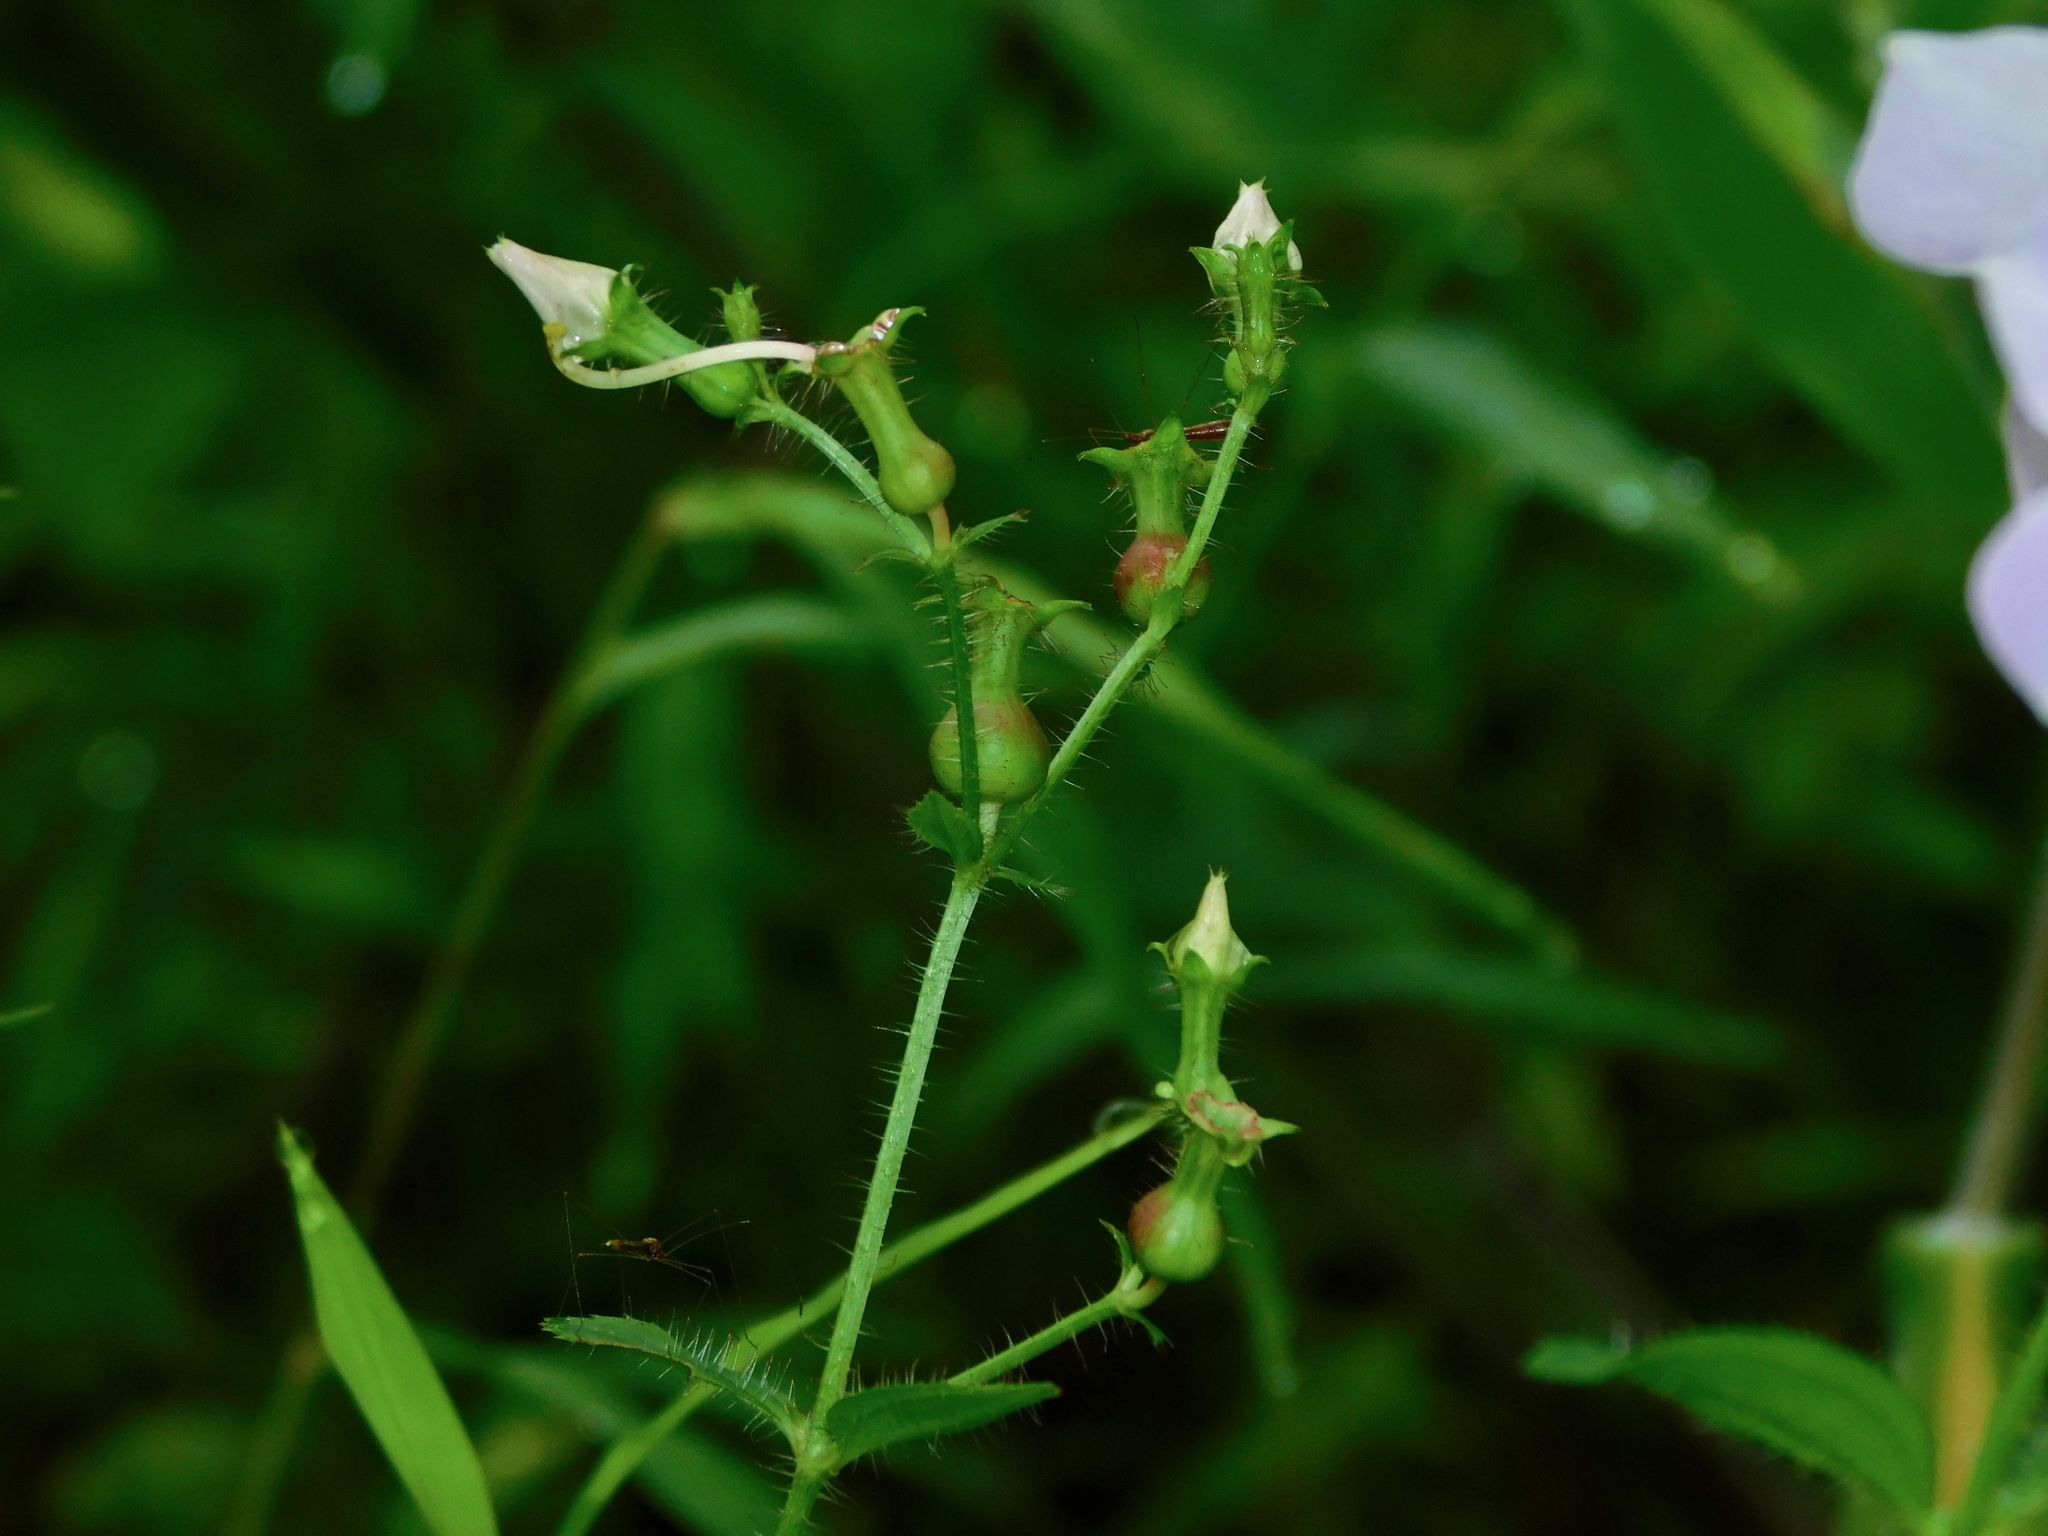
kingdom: Plantae
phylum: Tracheophyta
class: Magnoliopsida
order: Myrtales
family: Melastomataceae
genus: Rhexia
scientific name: Rhexia mariana
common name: Dull meadow-pitcher
